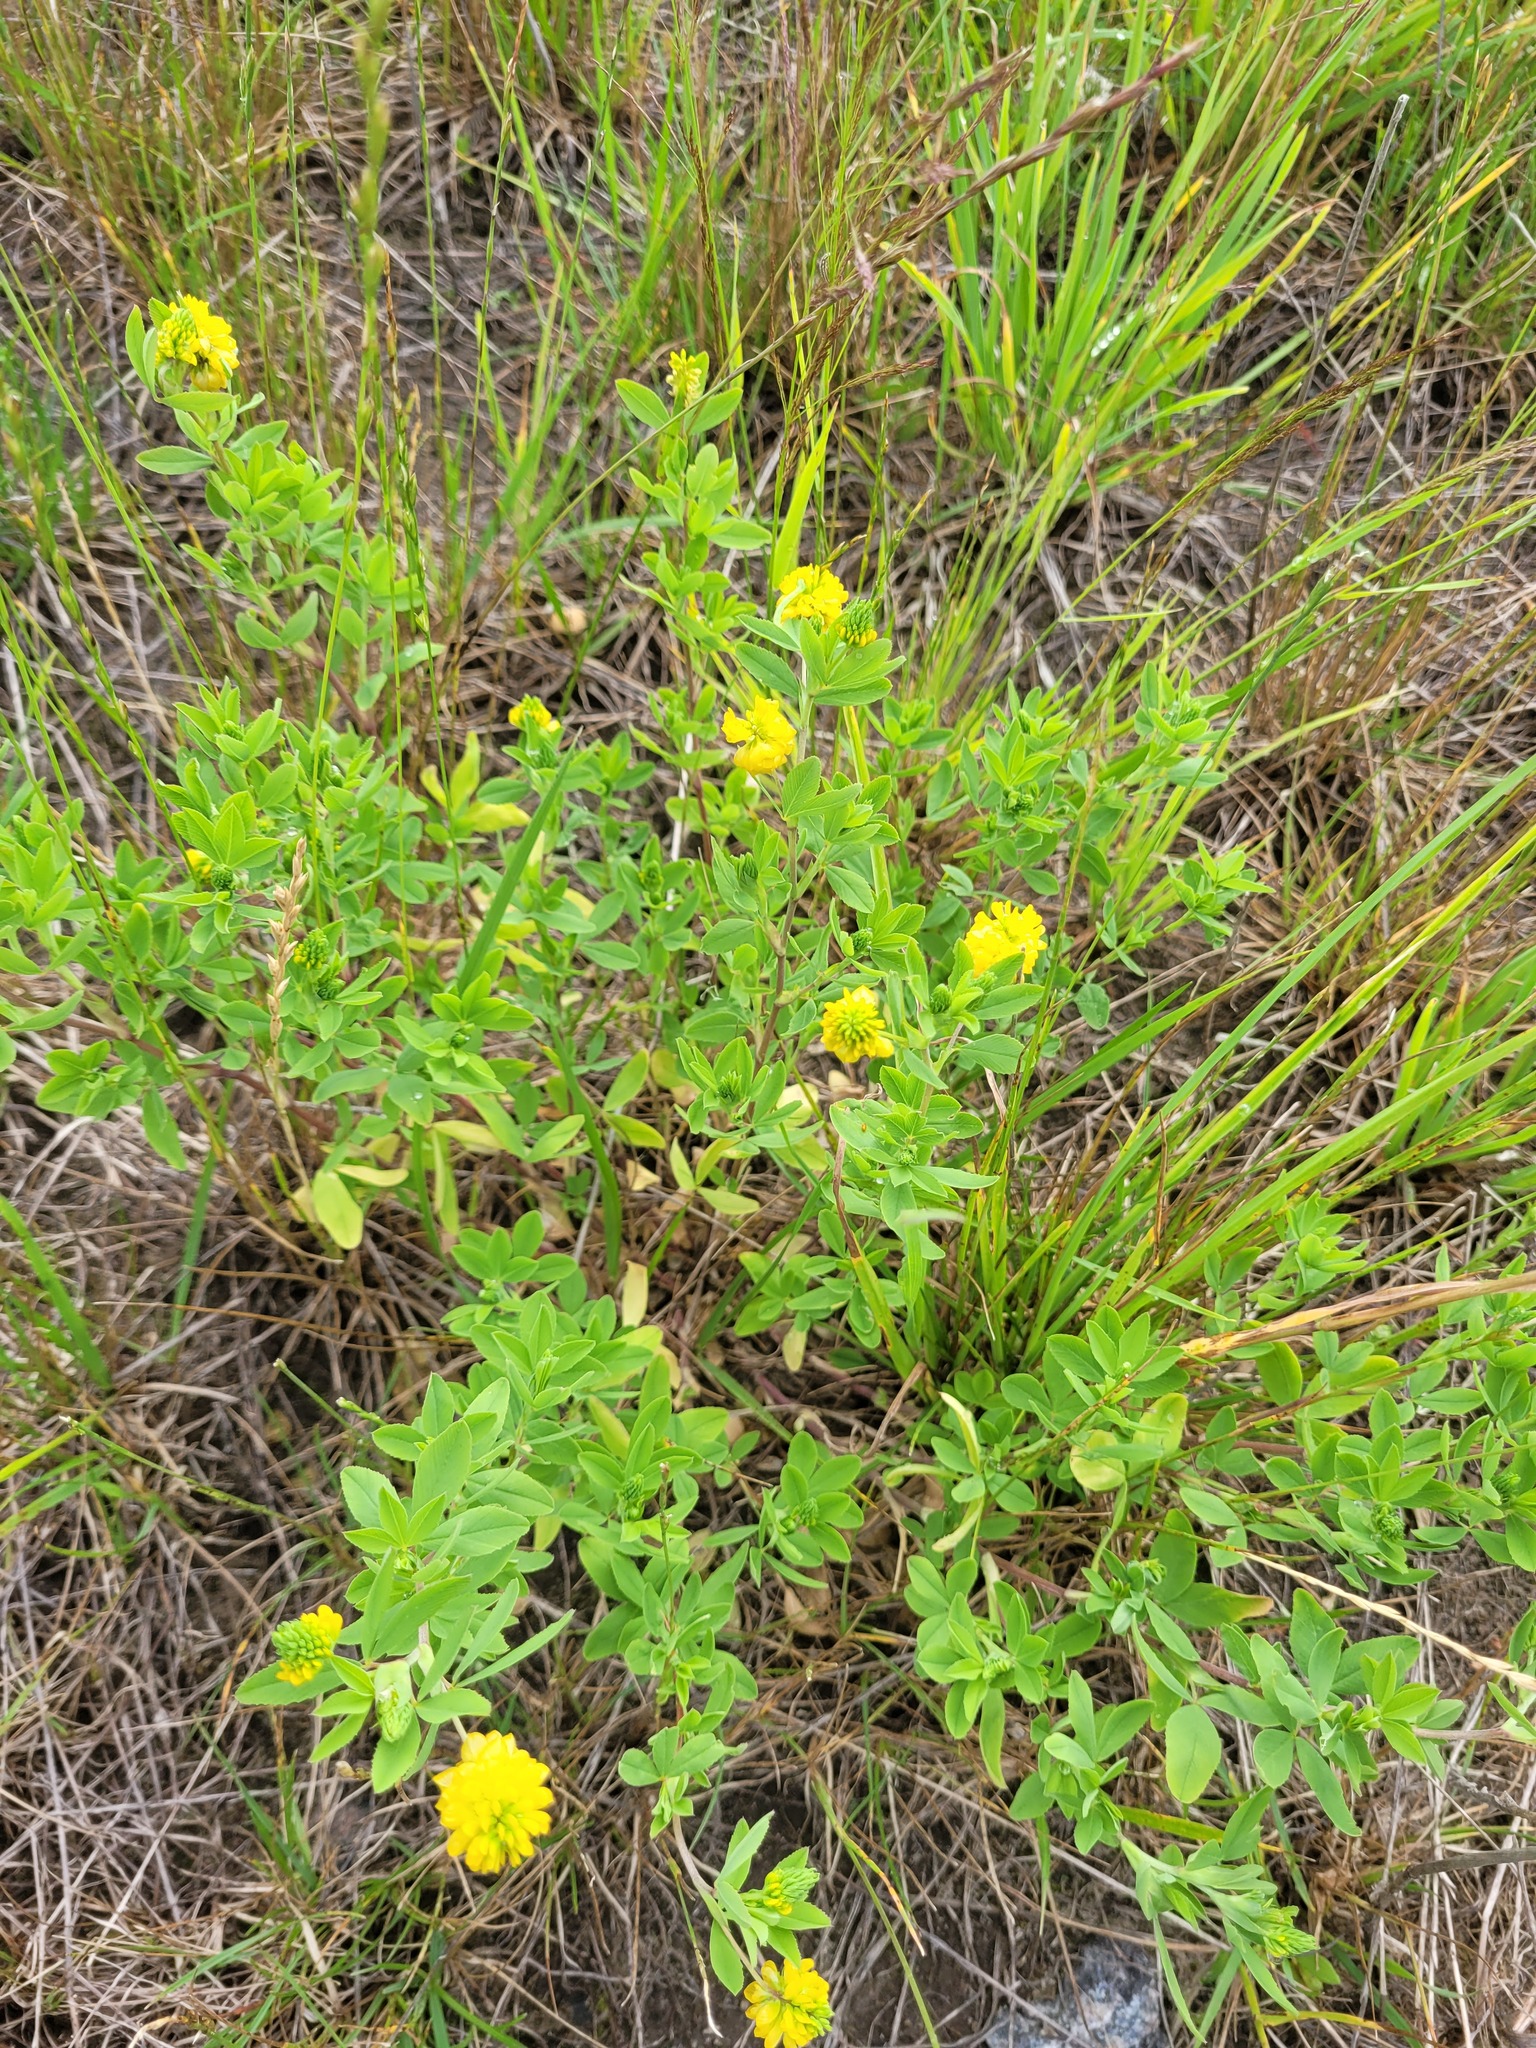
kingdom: Plantae
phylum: Tracheophyta
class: Magnoliopsida
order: Fabales
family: Fabaceae
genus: Trifolium
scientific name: Trifolium aureum
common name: Golden clover
